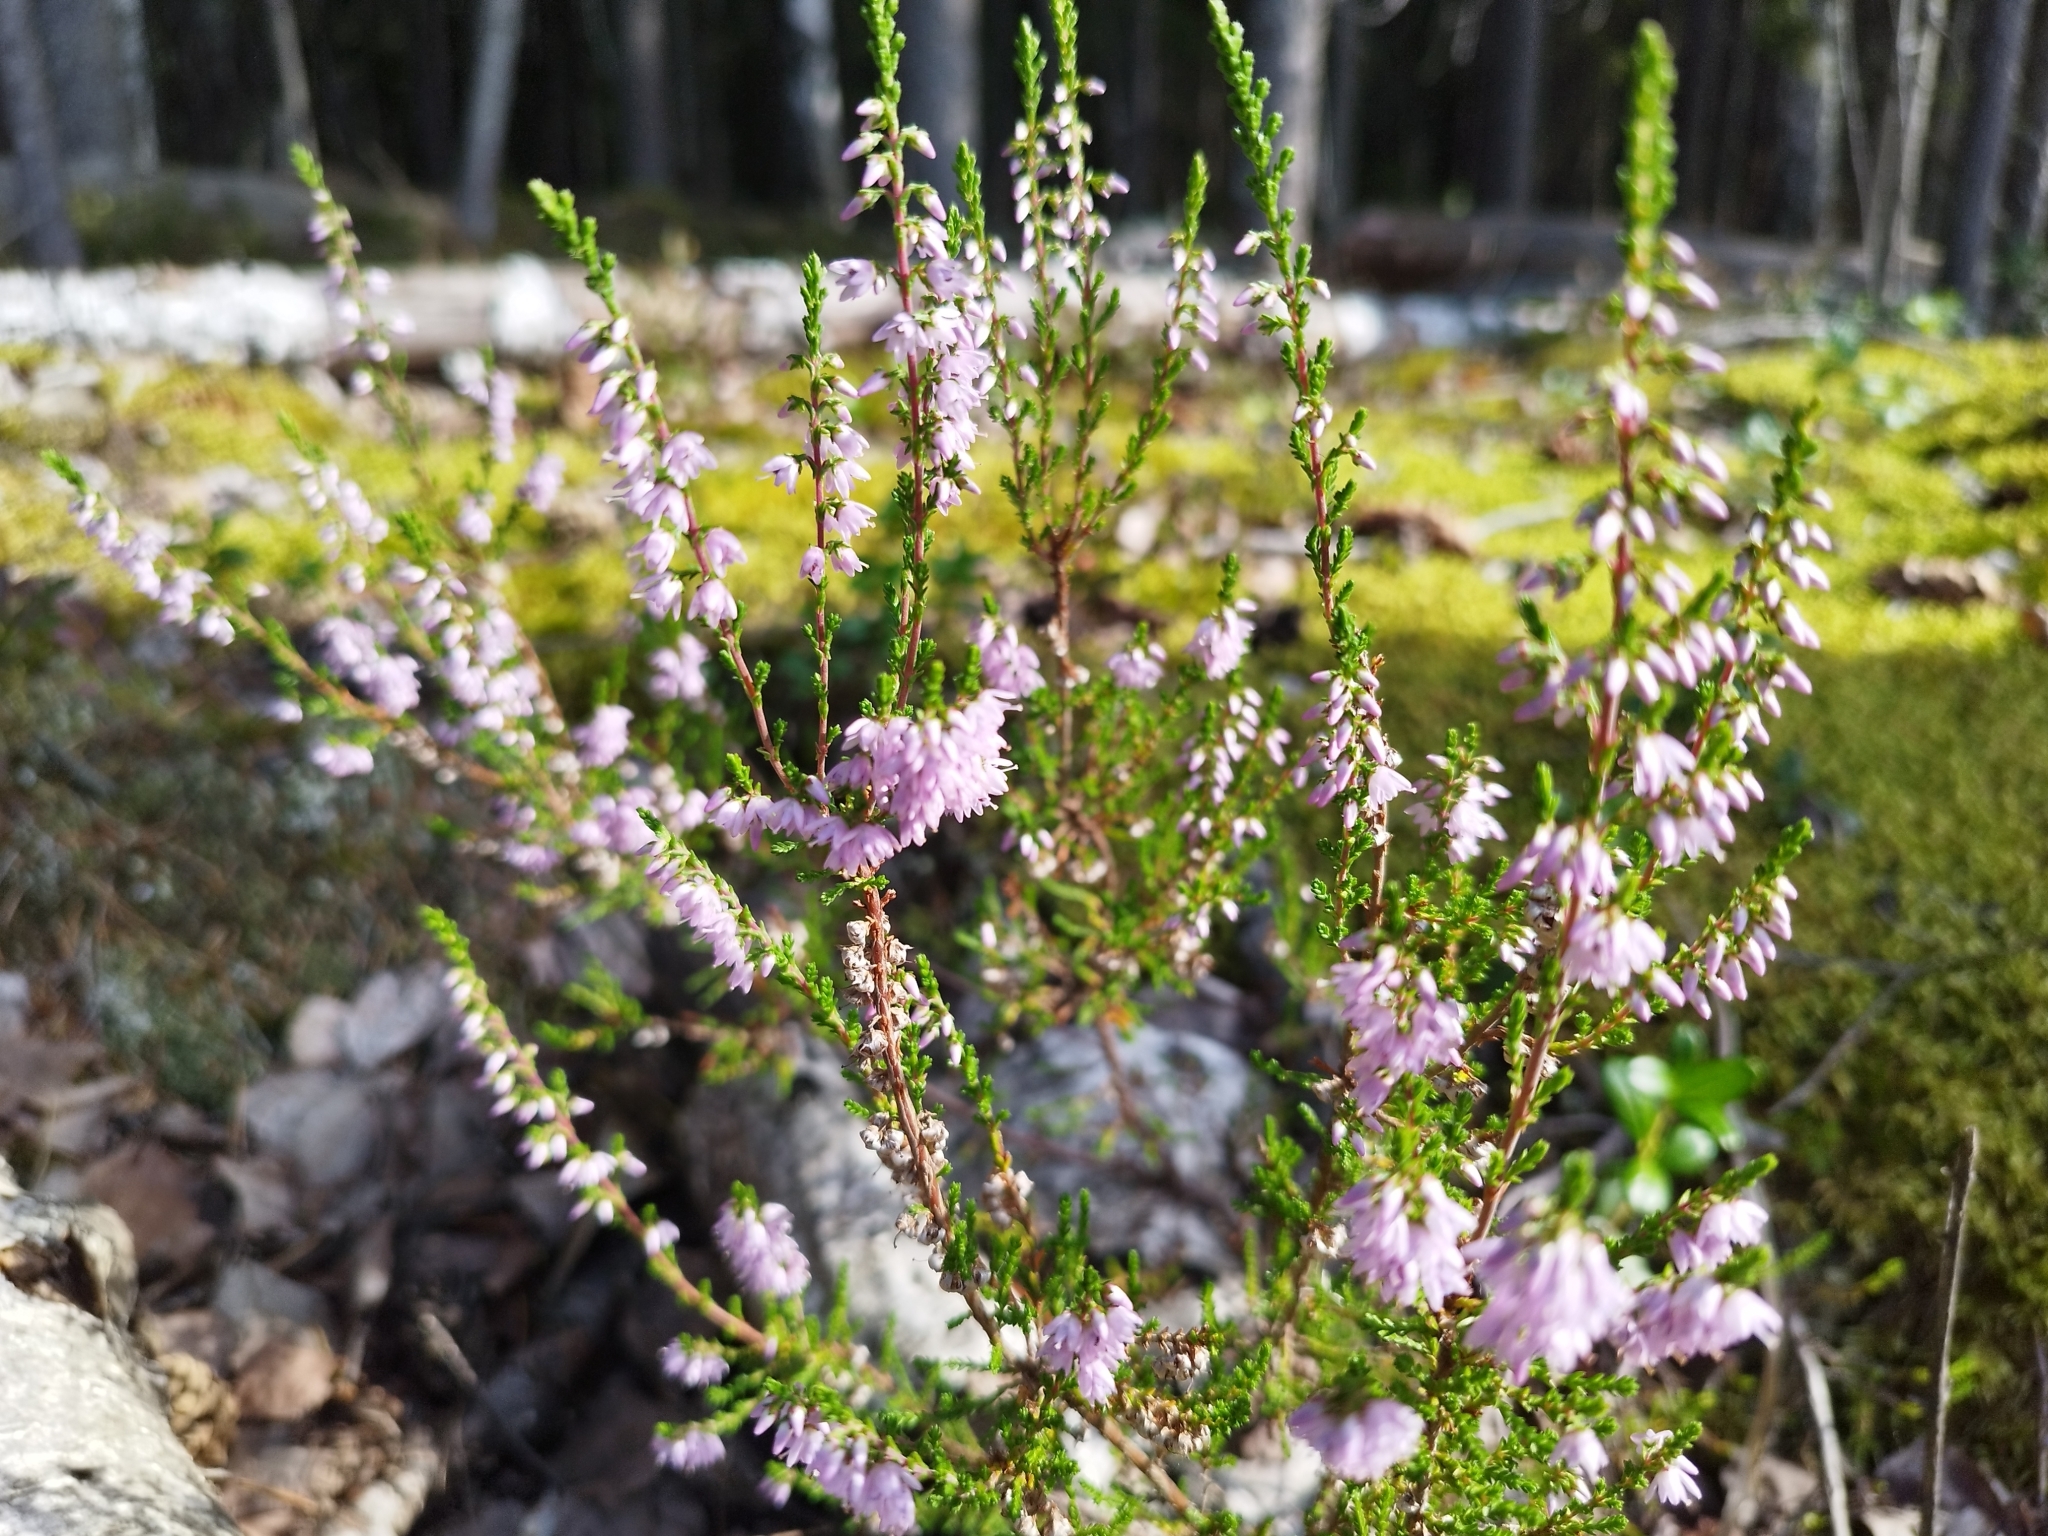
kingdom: Plantae
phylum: Tracheophyta
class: Magnoliopsida
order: Ericales
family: Ericaceae
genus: Calluna
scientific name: Calluna vulgaris
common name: Heather
